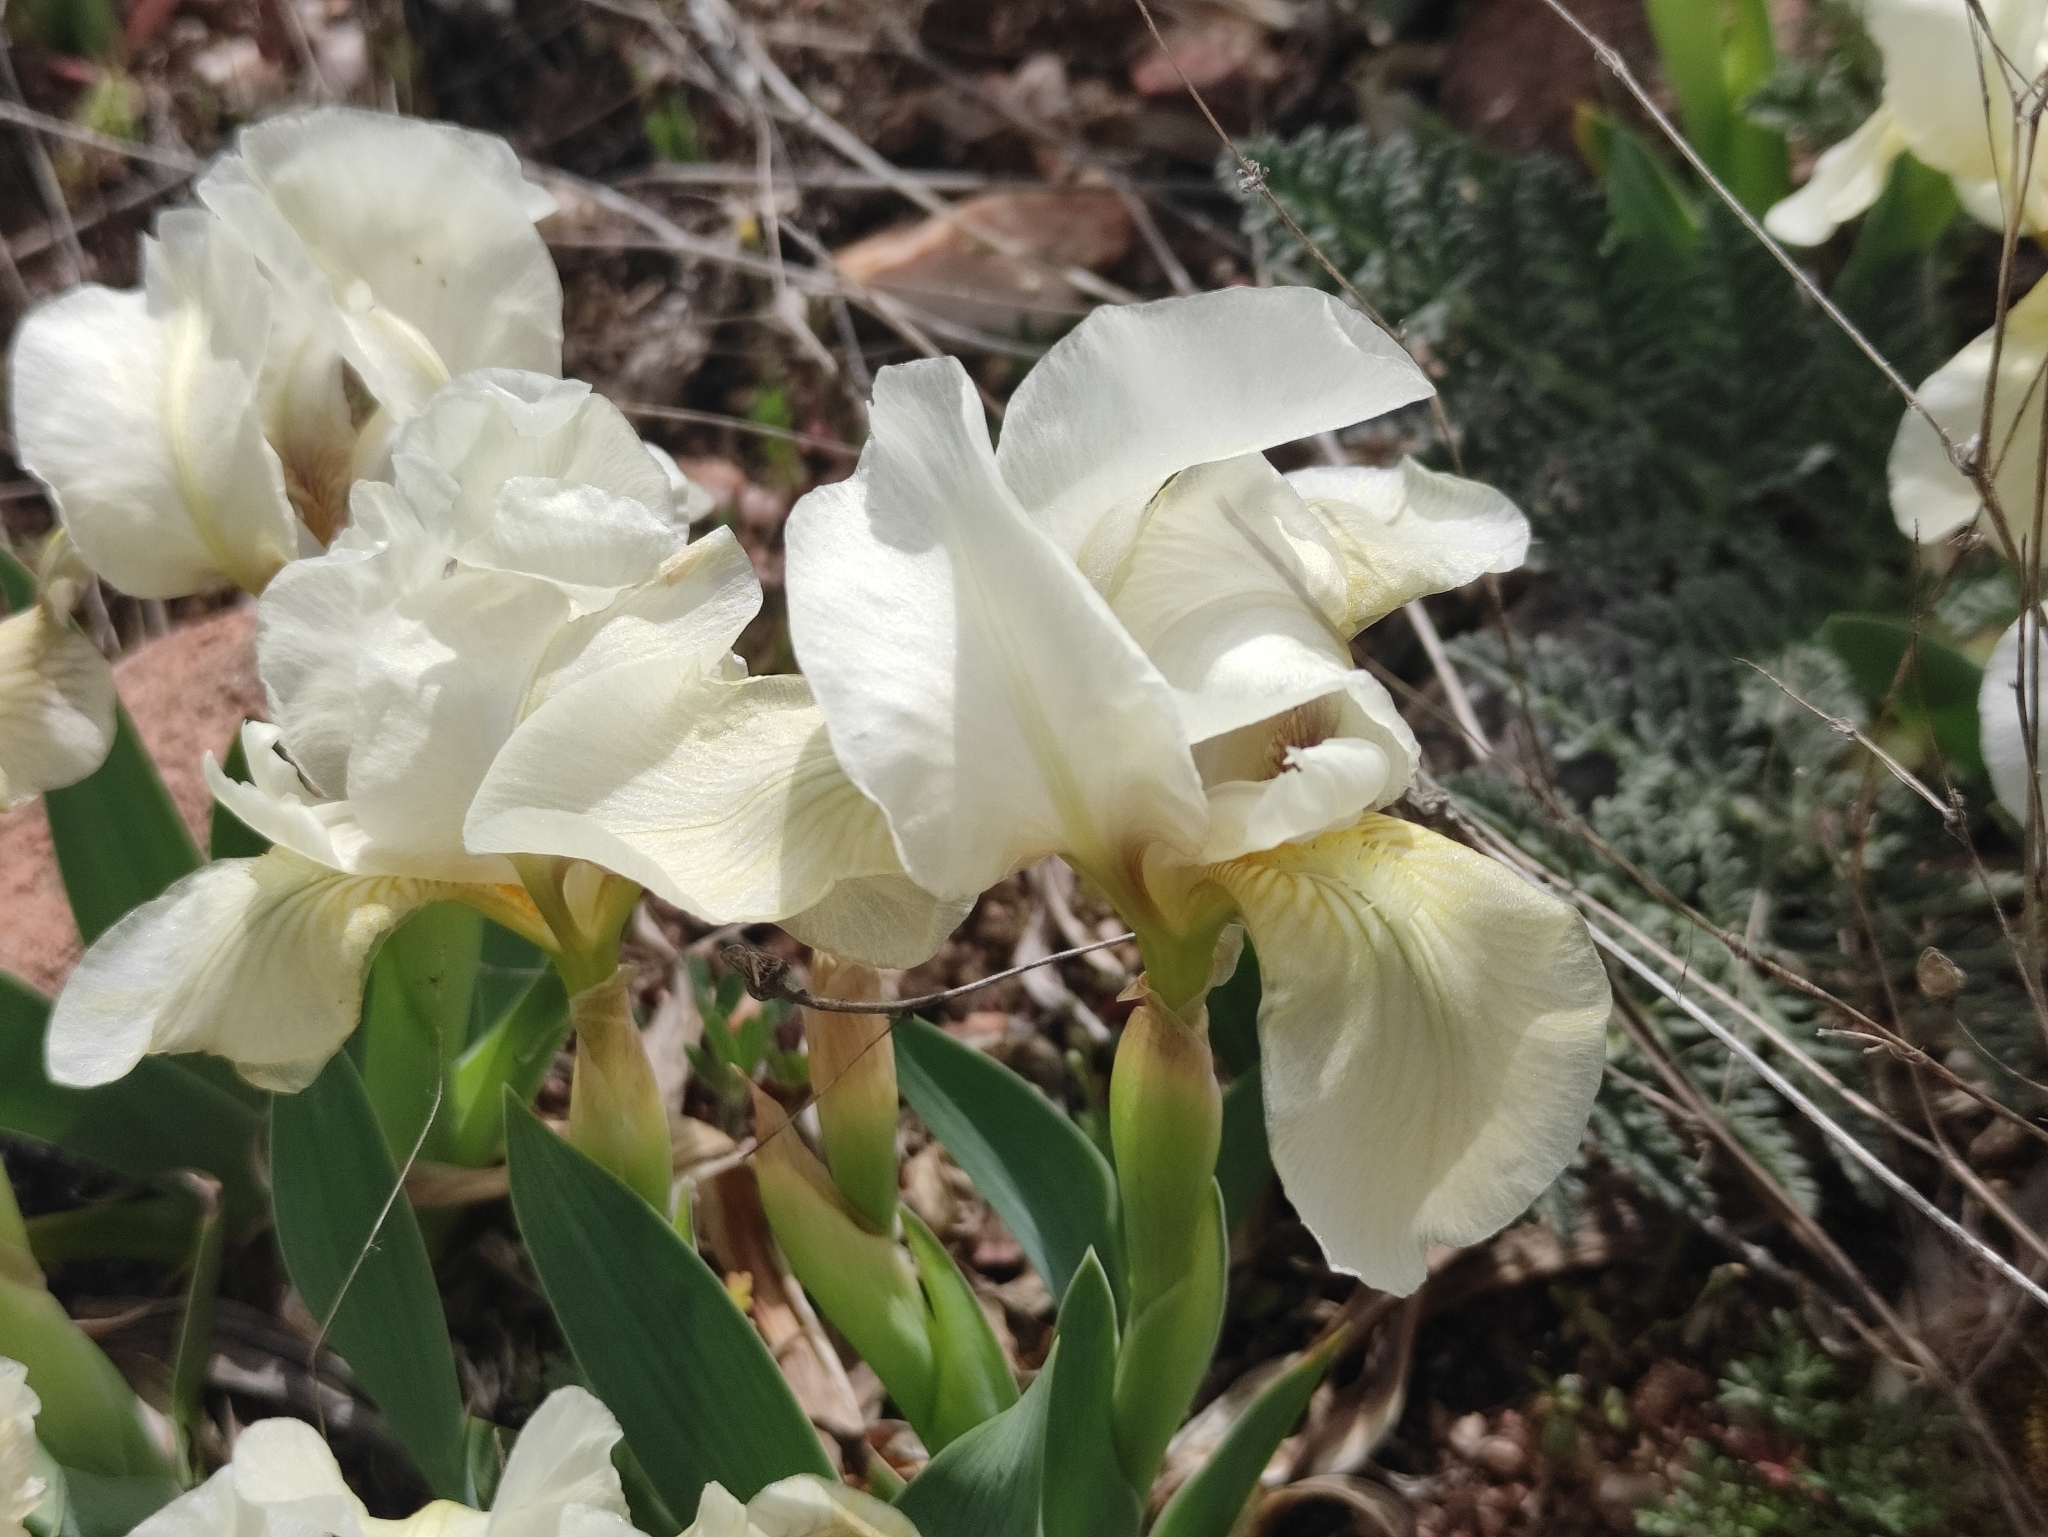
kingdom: Plantae
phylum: Tracheophyta
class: Liliopsida
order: Asparagales
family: Iridaceae
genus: Iris
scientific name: Iris lutescens
